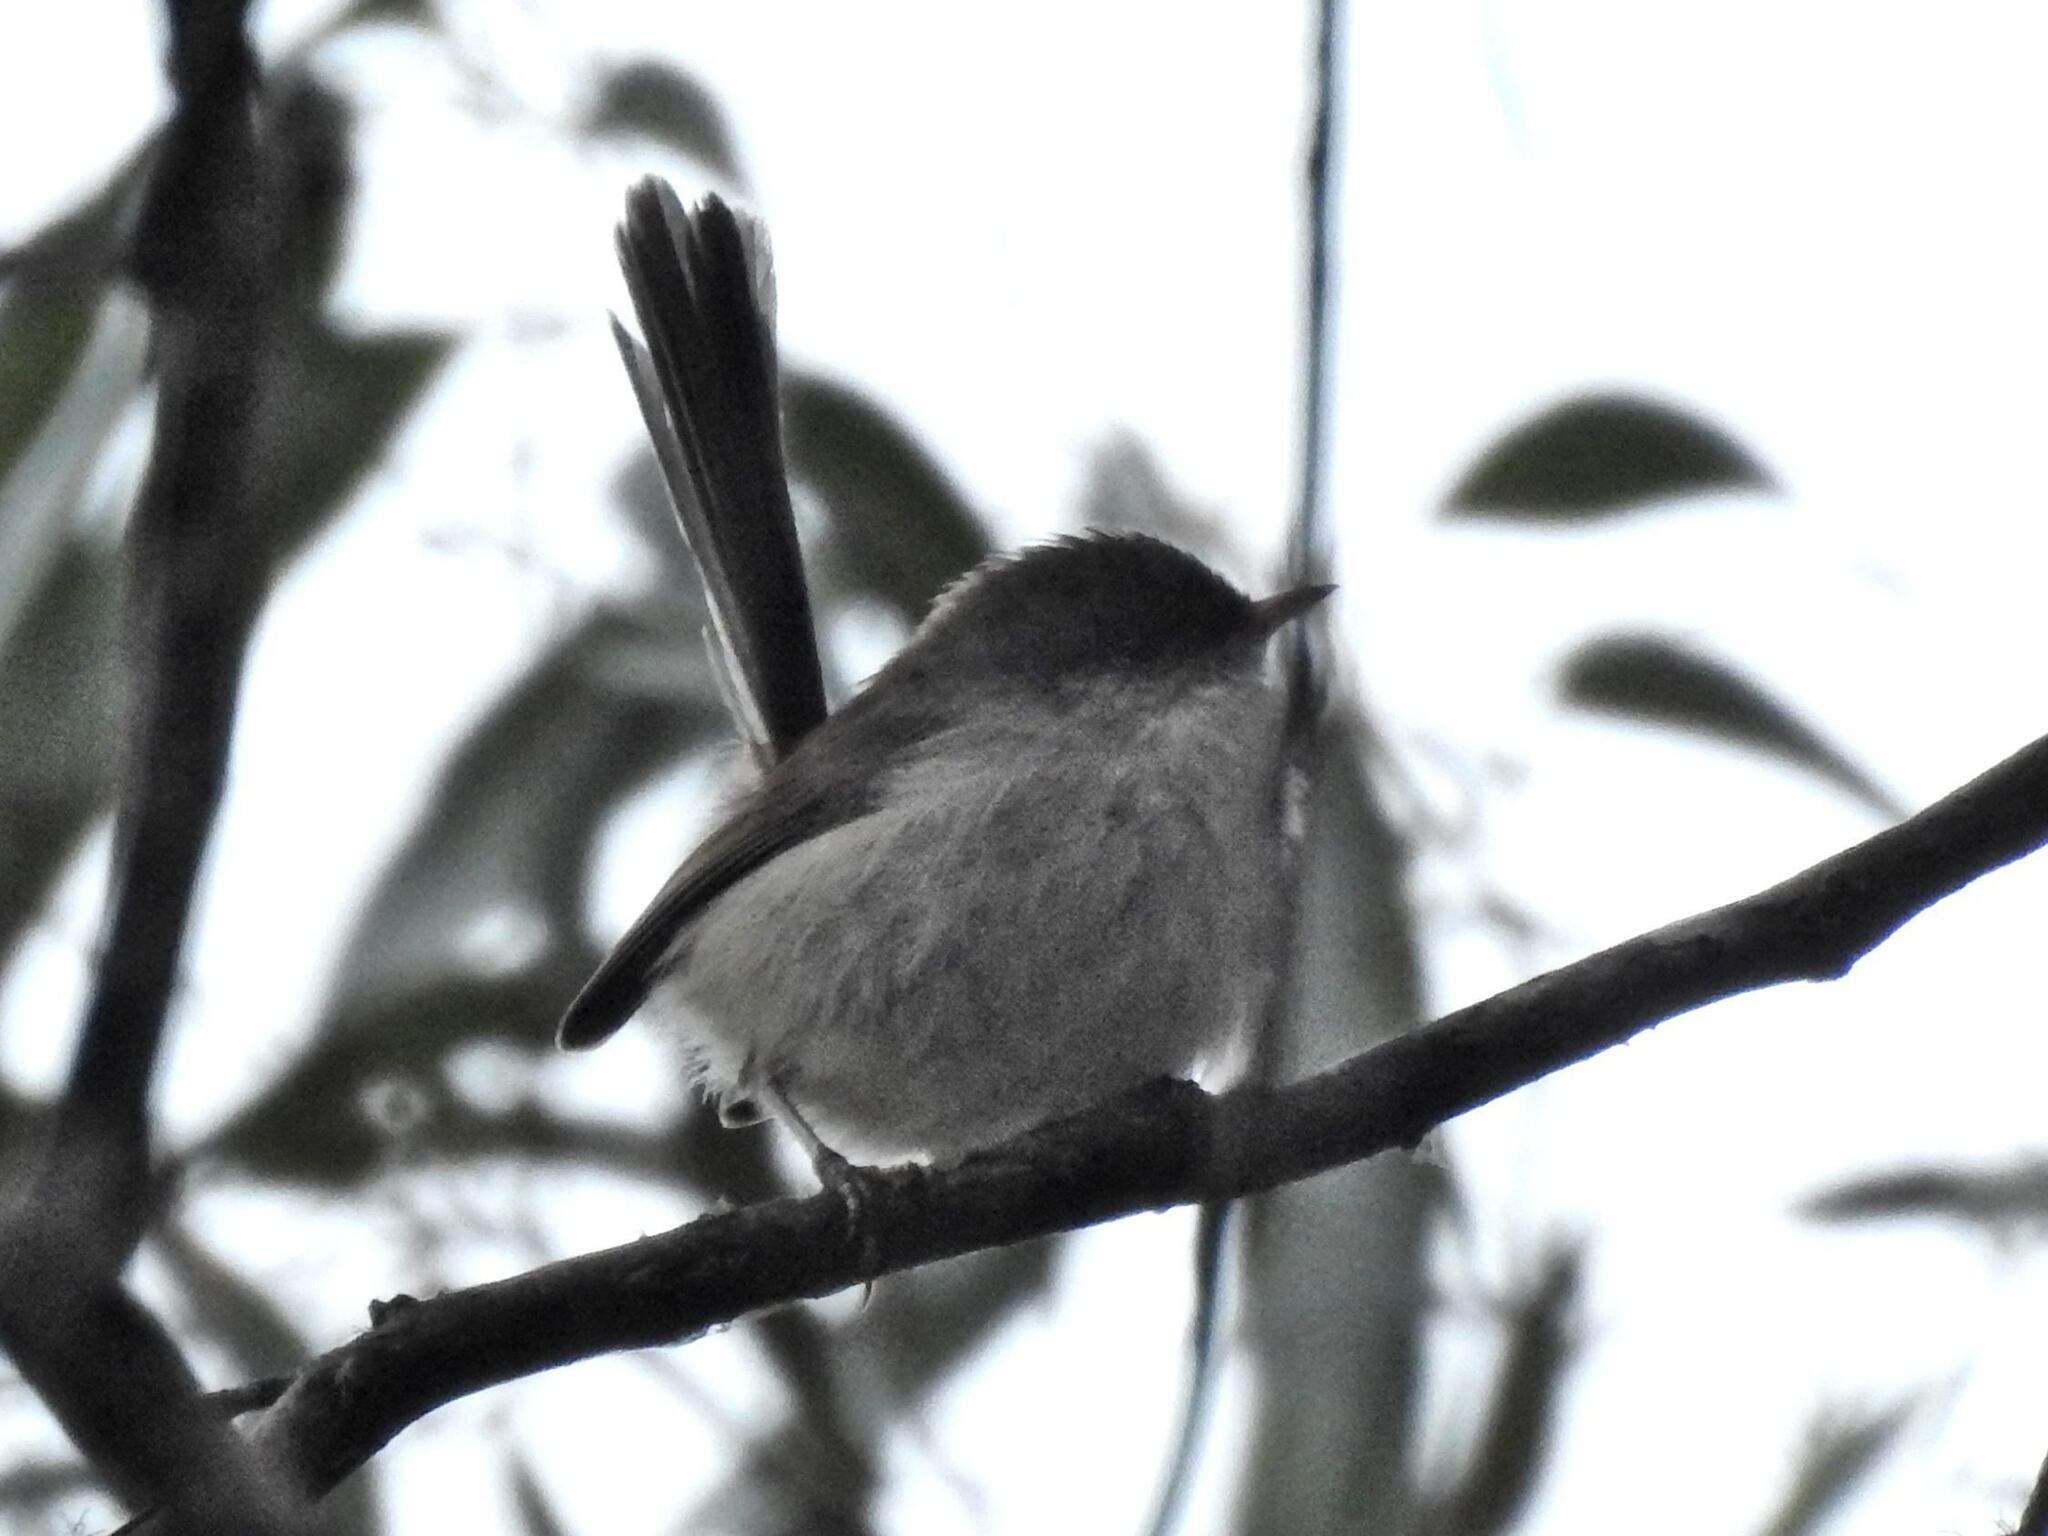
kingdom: Animalia
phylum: Chordata
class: Aves
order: Passeriformes
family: Maluridae
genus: Malurus
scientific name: Malurus cyaneus
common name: Superb fairywren
